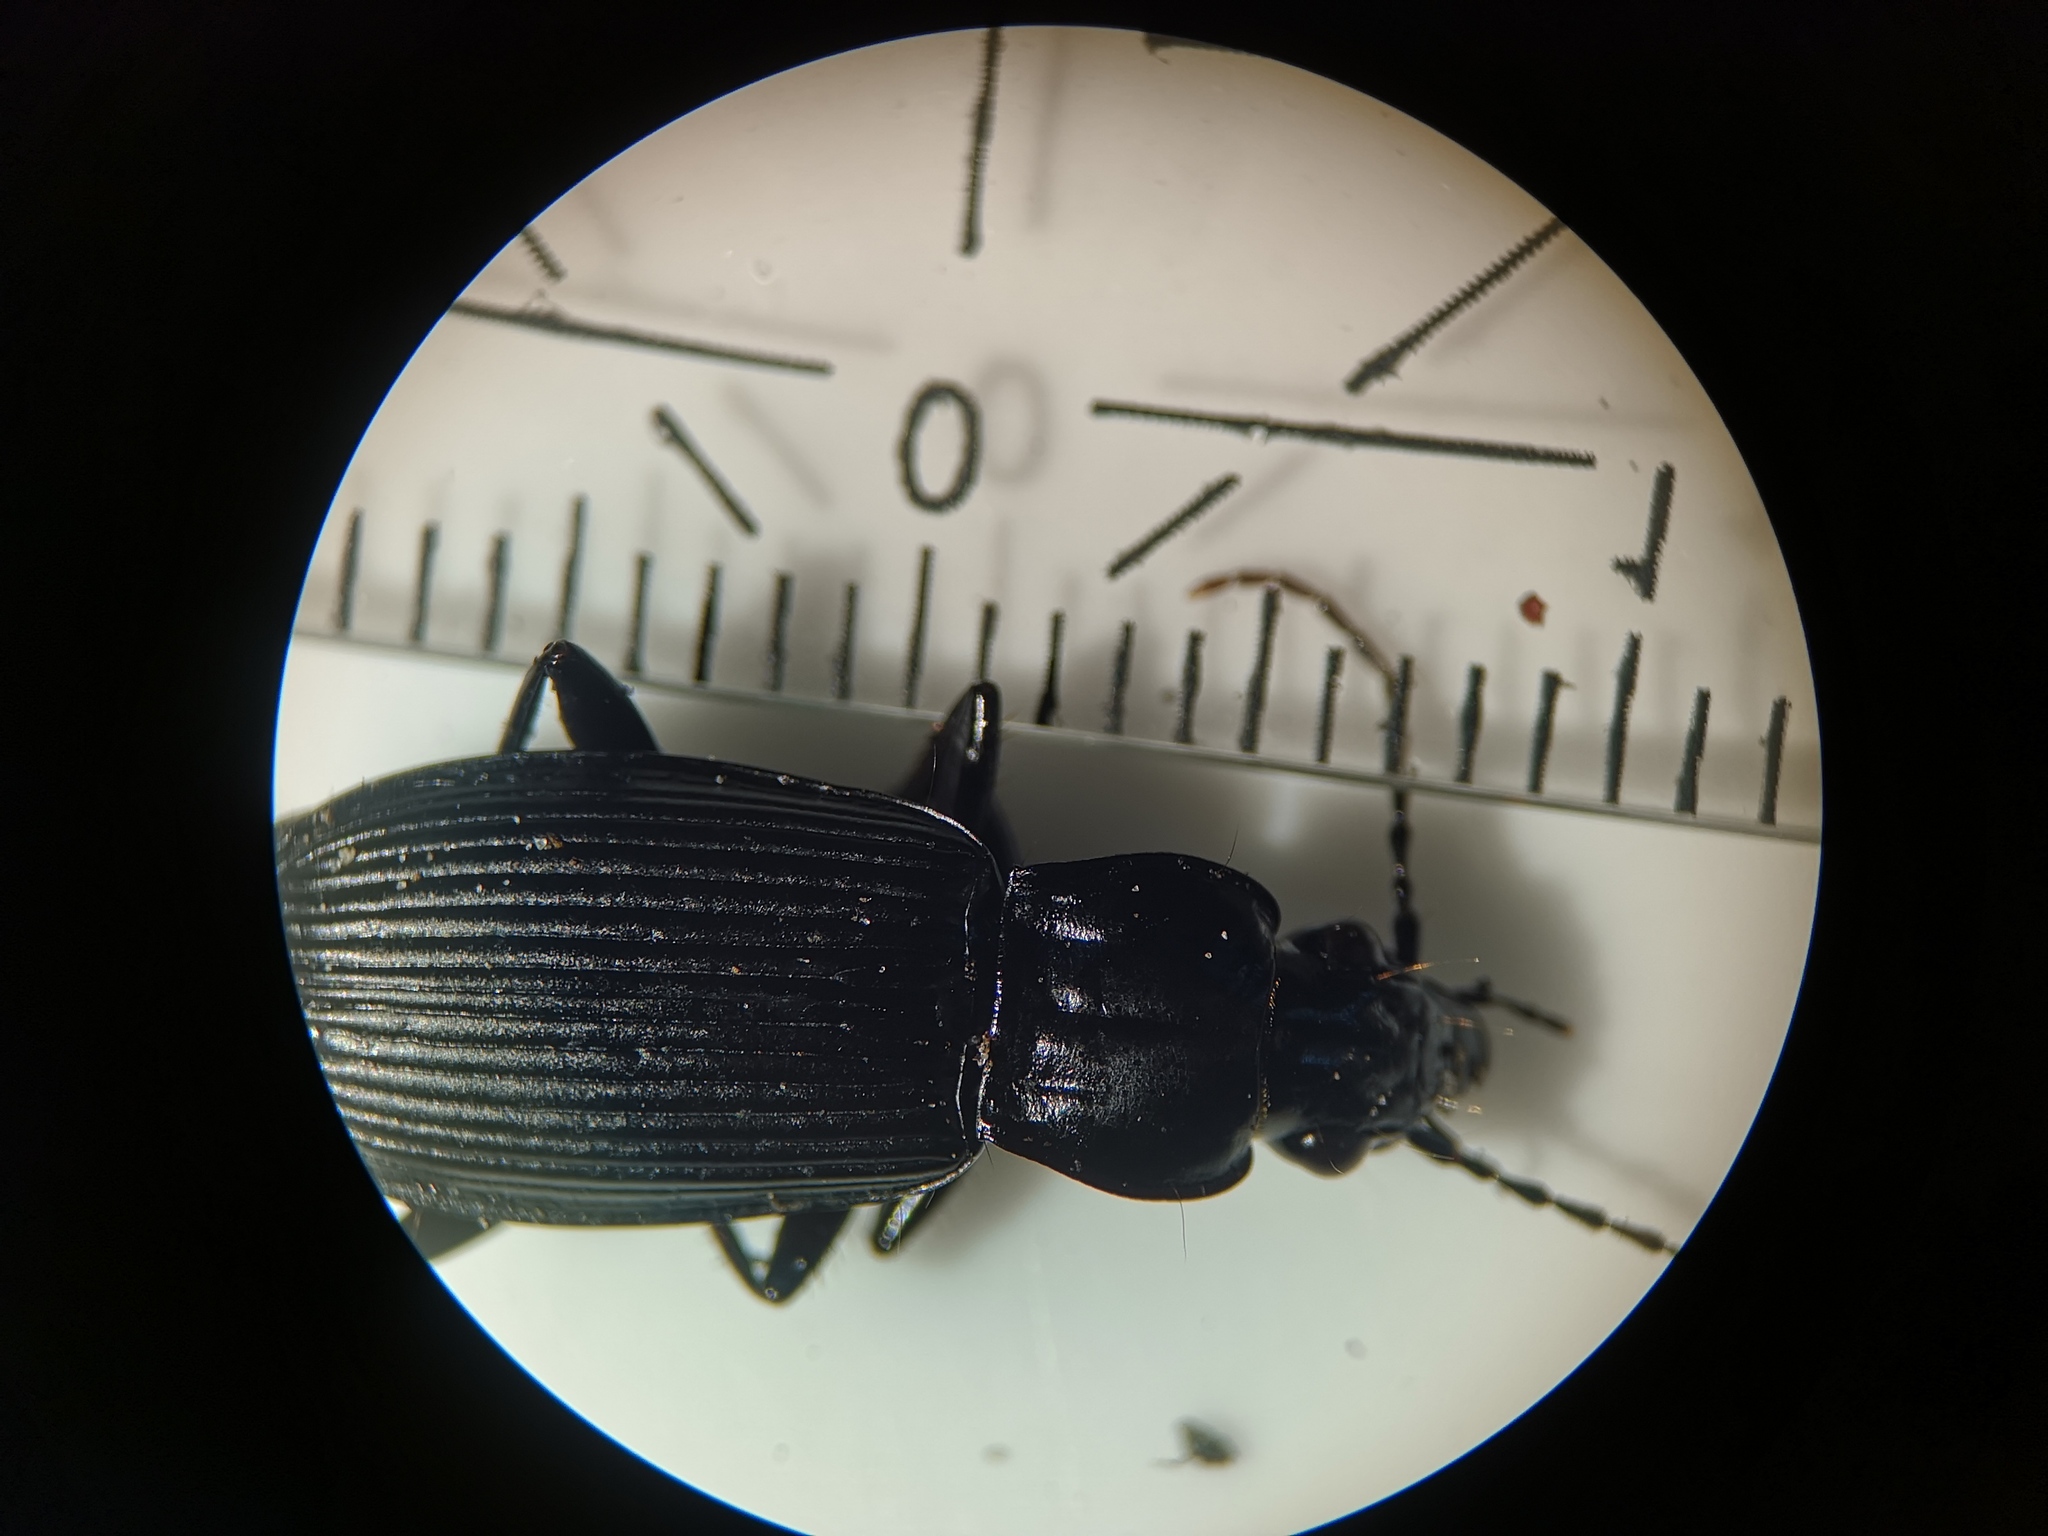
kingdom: Animalia
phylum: Arthropoda
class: Insecta
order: Coleoptera
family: Carabidae
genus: Pterostichus
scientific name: Pterostichus niger
